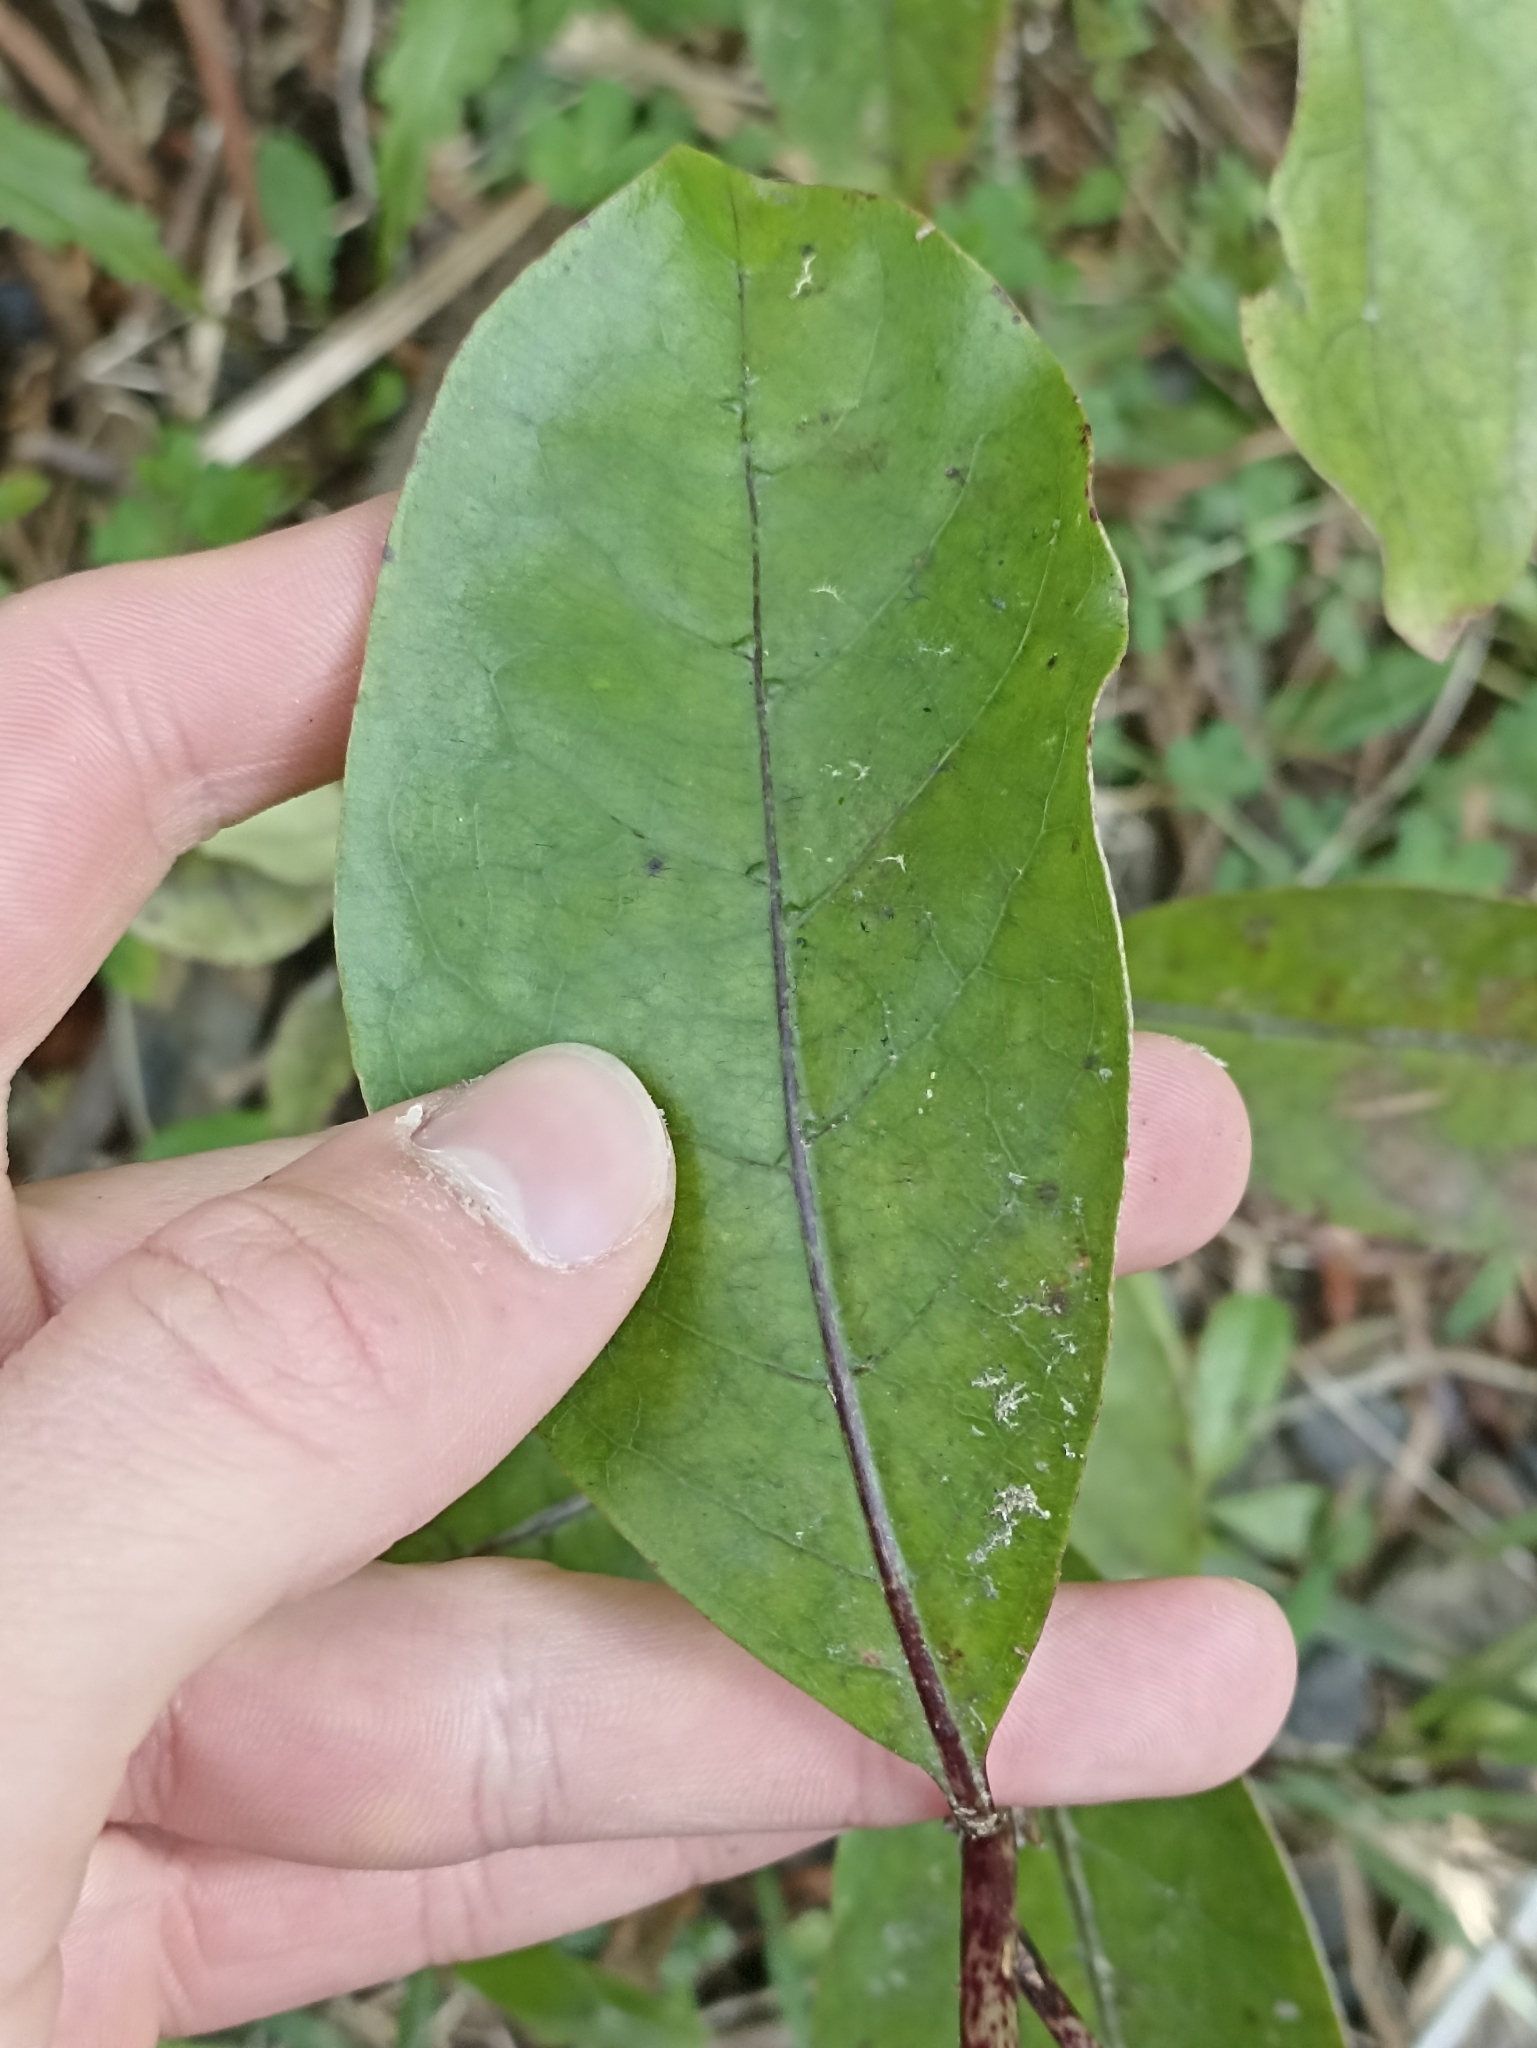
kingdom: Plantae
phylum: Tracheophyta
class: Magnoliopsida
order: Gentianales
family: Rubiaceae
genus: Coprosma
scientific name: Coprosma autumnalis
